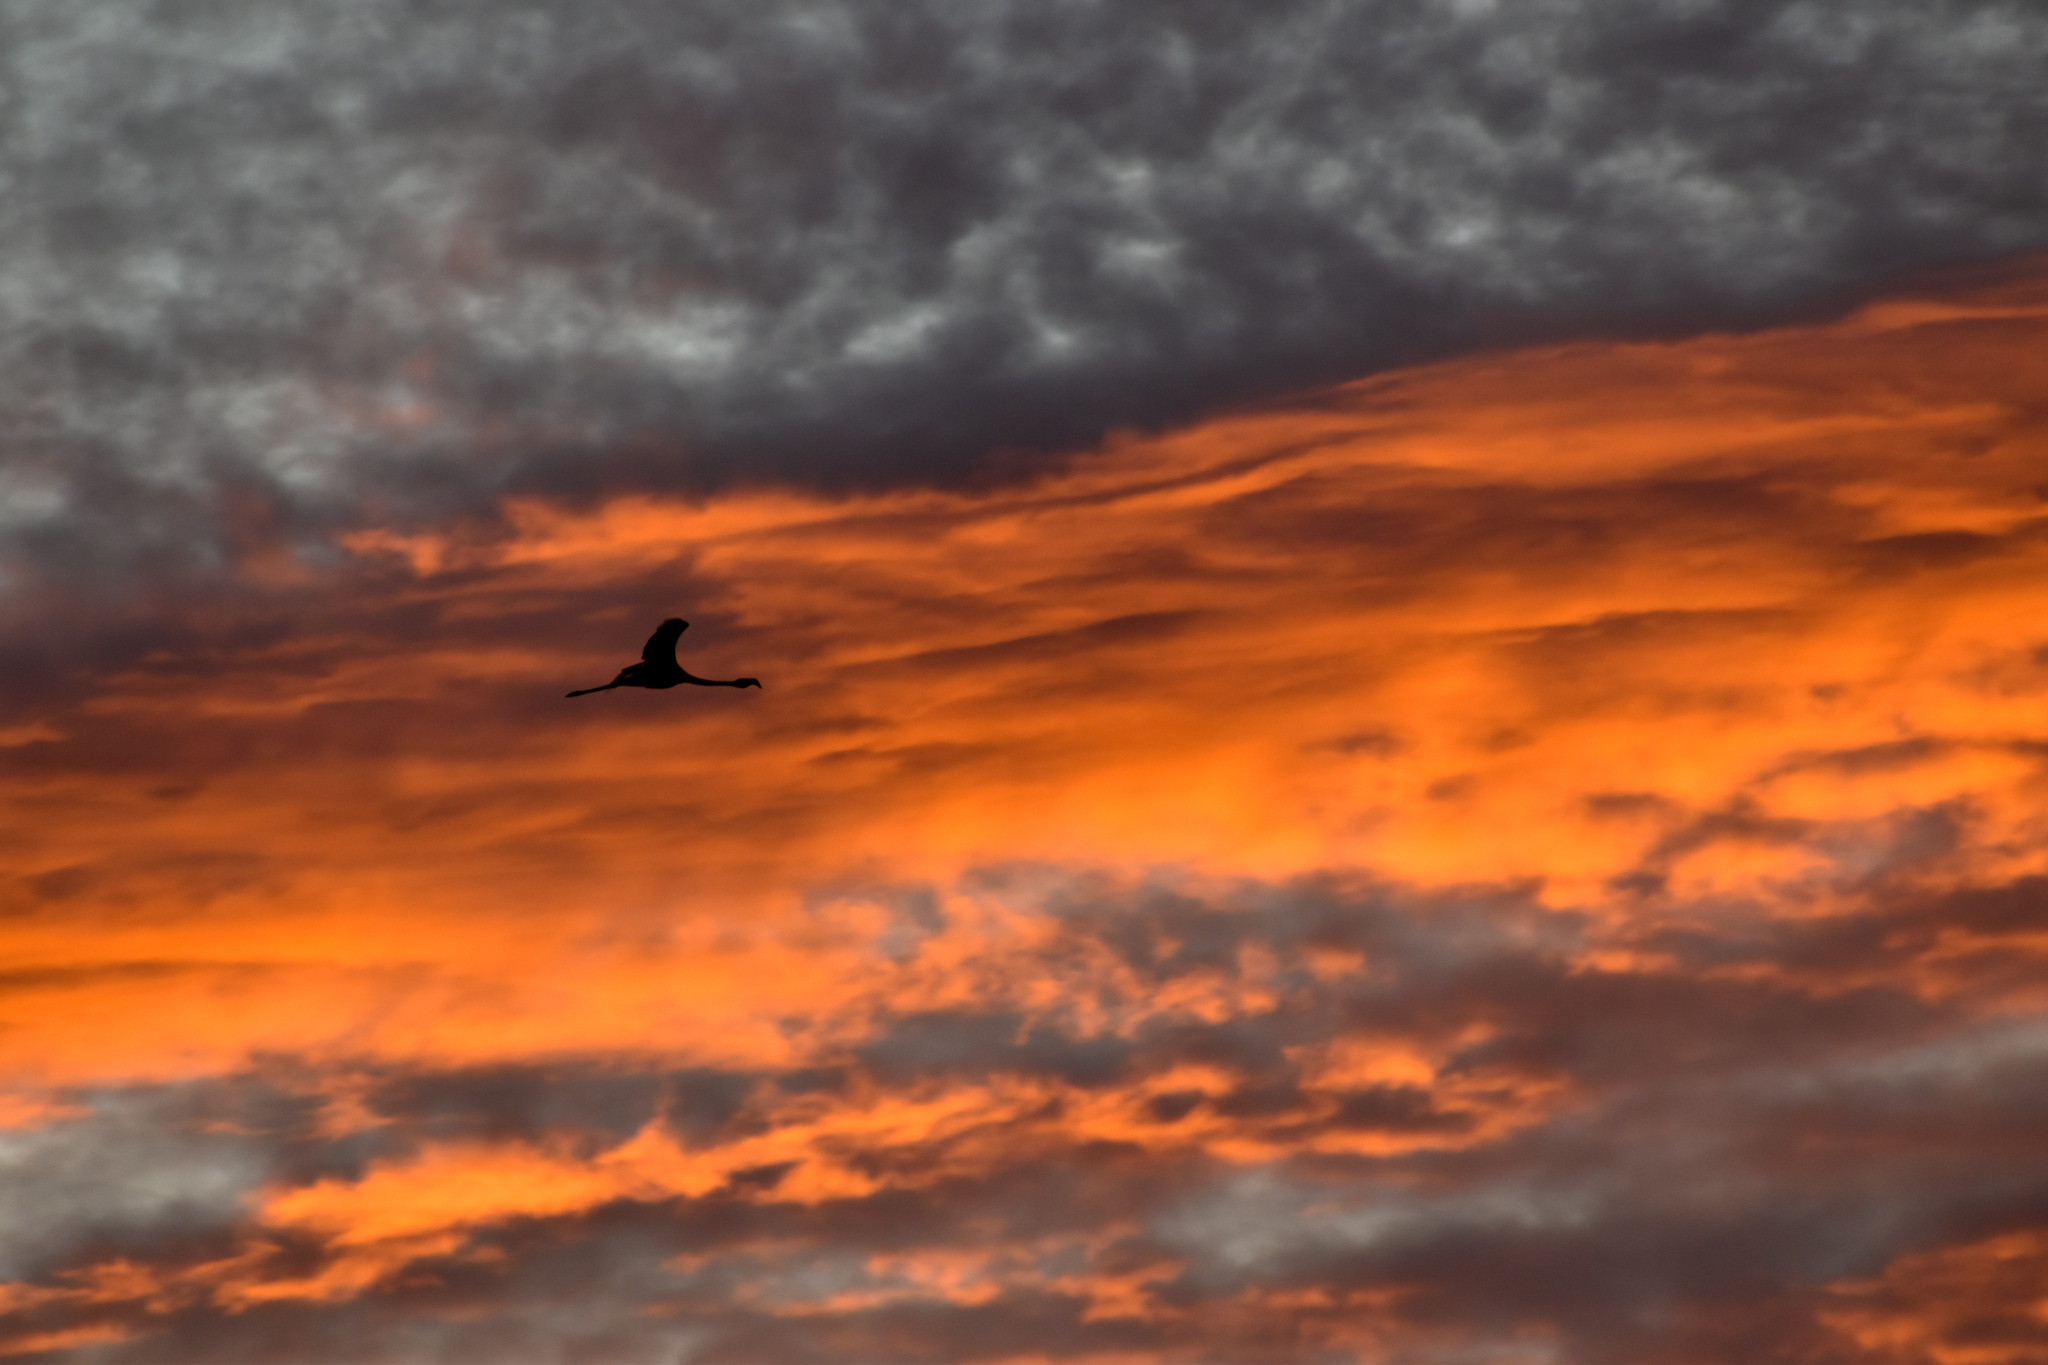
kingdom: Animalia
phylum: Chordata
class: Aves
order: Phoenicopteriformes
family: Phoenicopteridae
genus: Phoenicopterus
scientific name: Phoenicopterus chilensis
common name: Chilean flamingo
